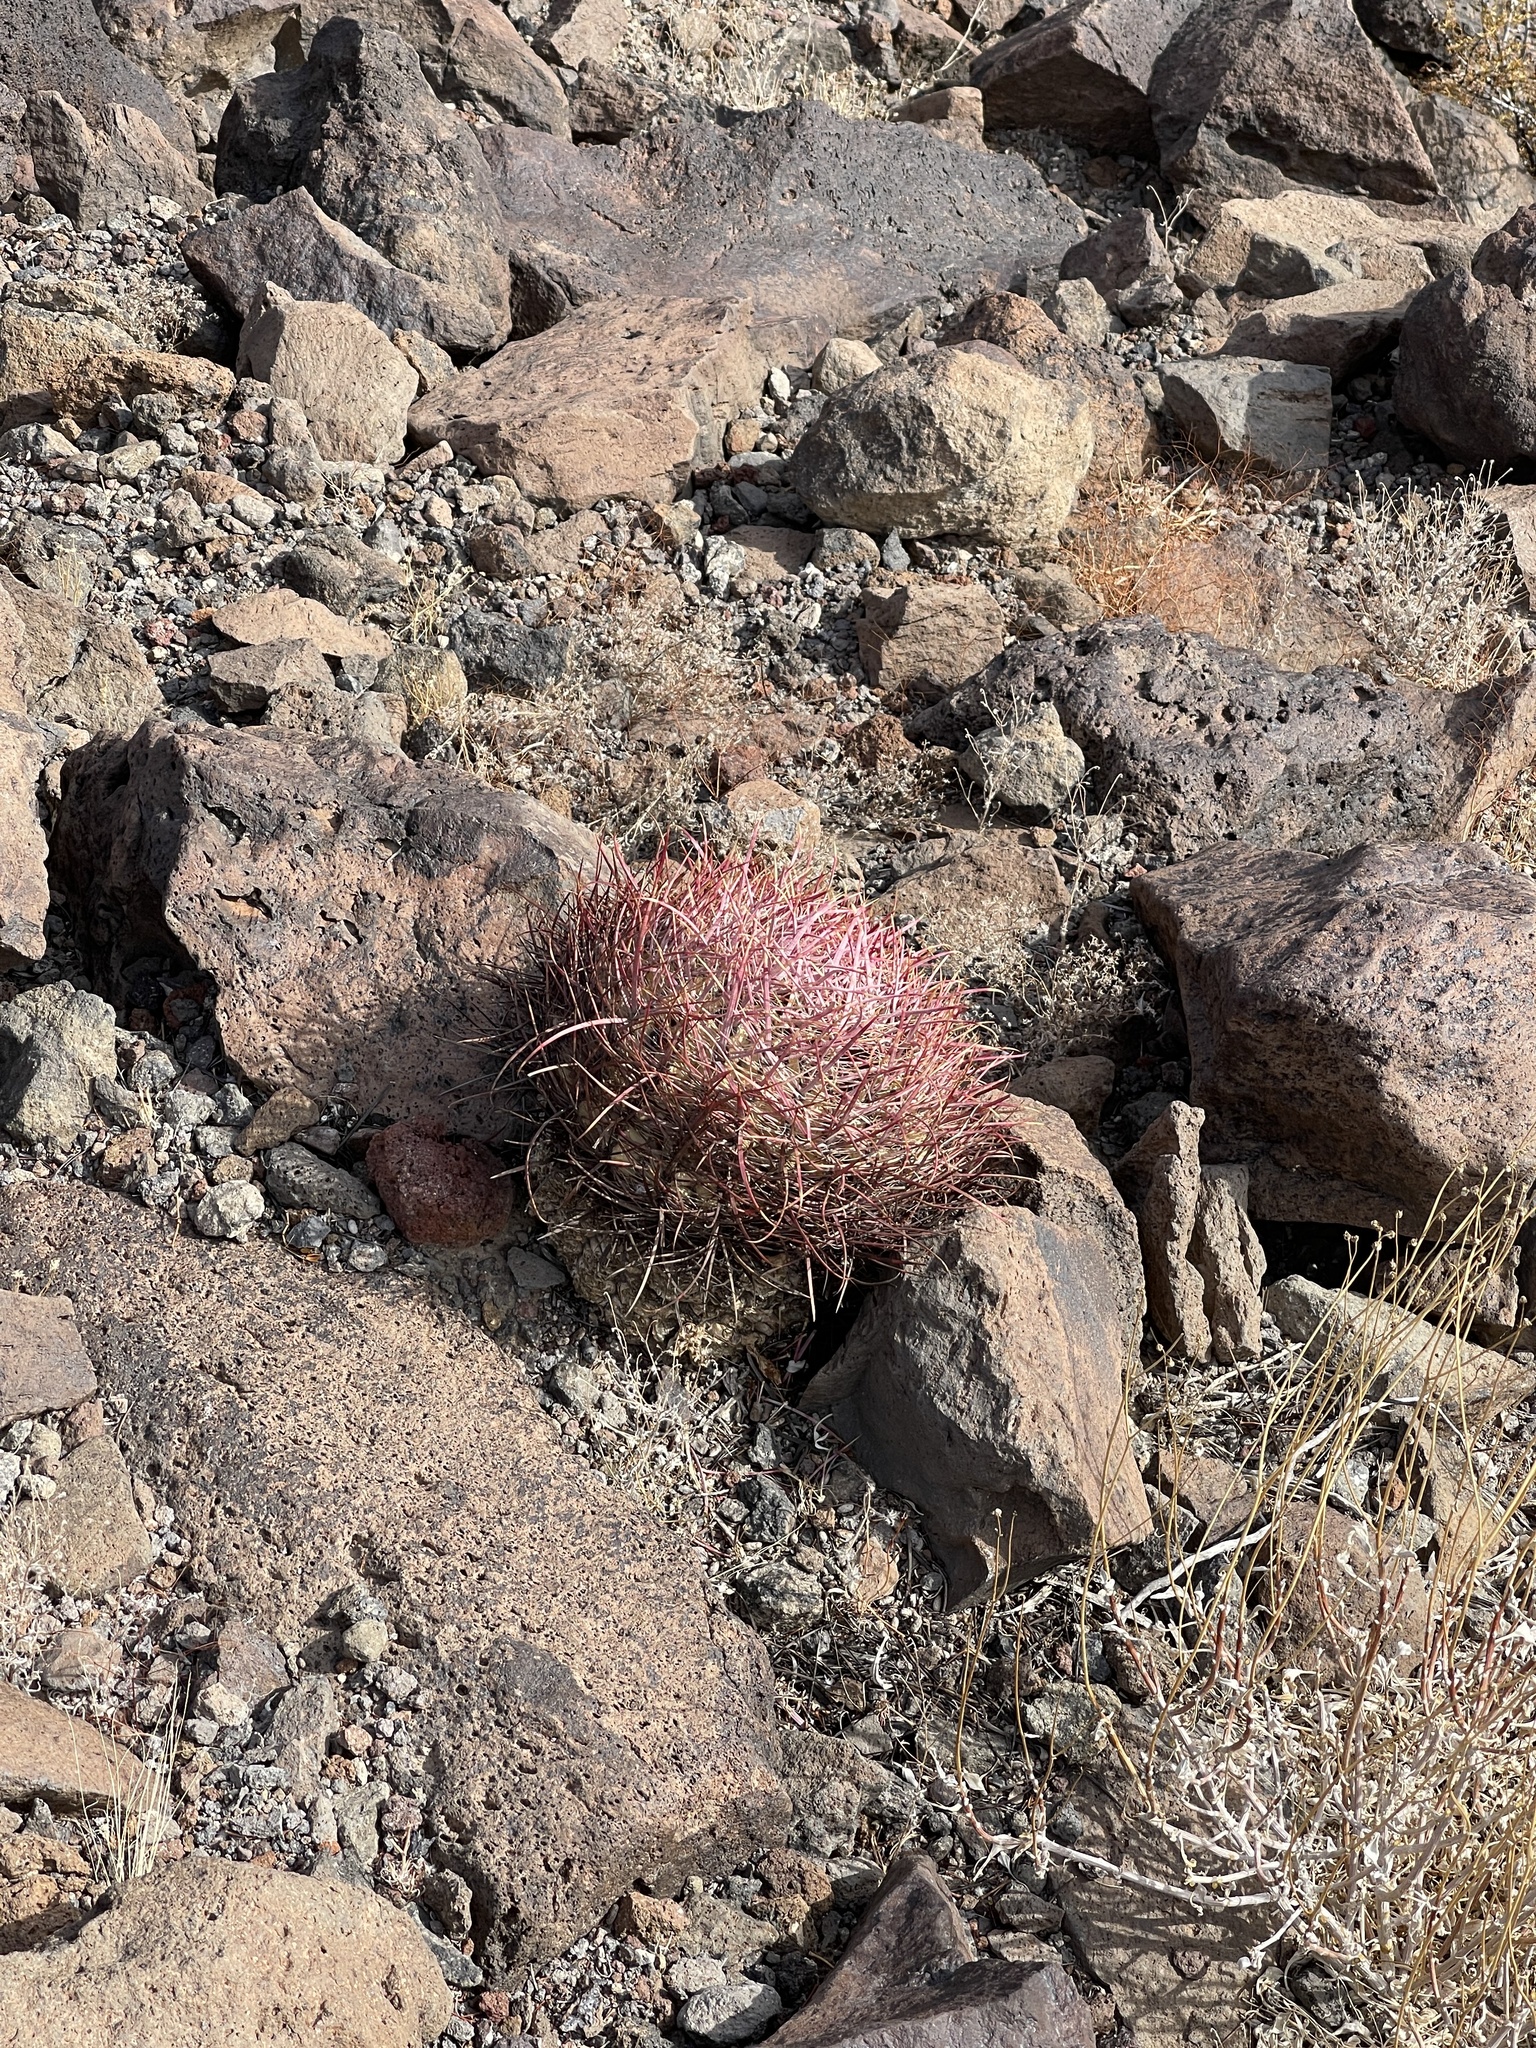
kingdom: Plantae
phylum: Tracheophyta
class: Magnoliopsida
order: Caryophyllales
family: Cactaceae
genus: Ferocactus
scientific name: Ferocactus cylindraceus
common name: California barrel cactus
